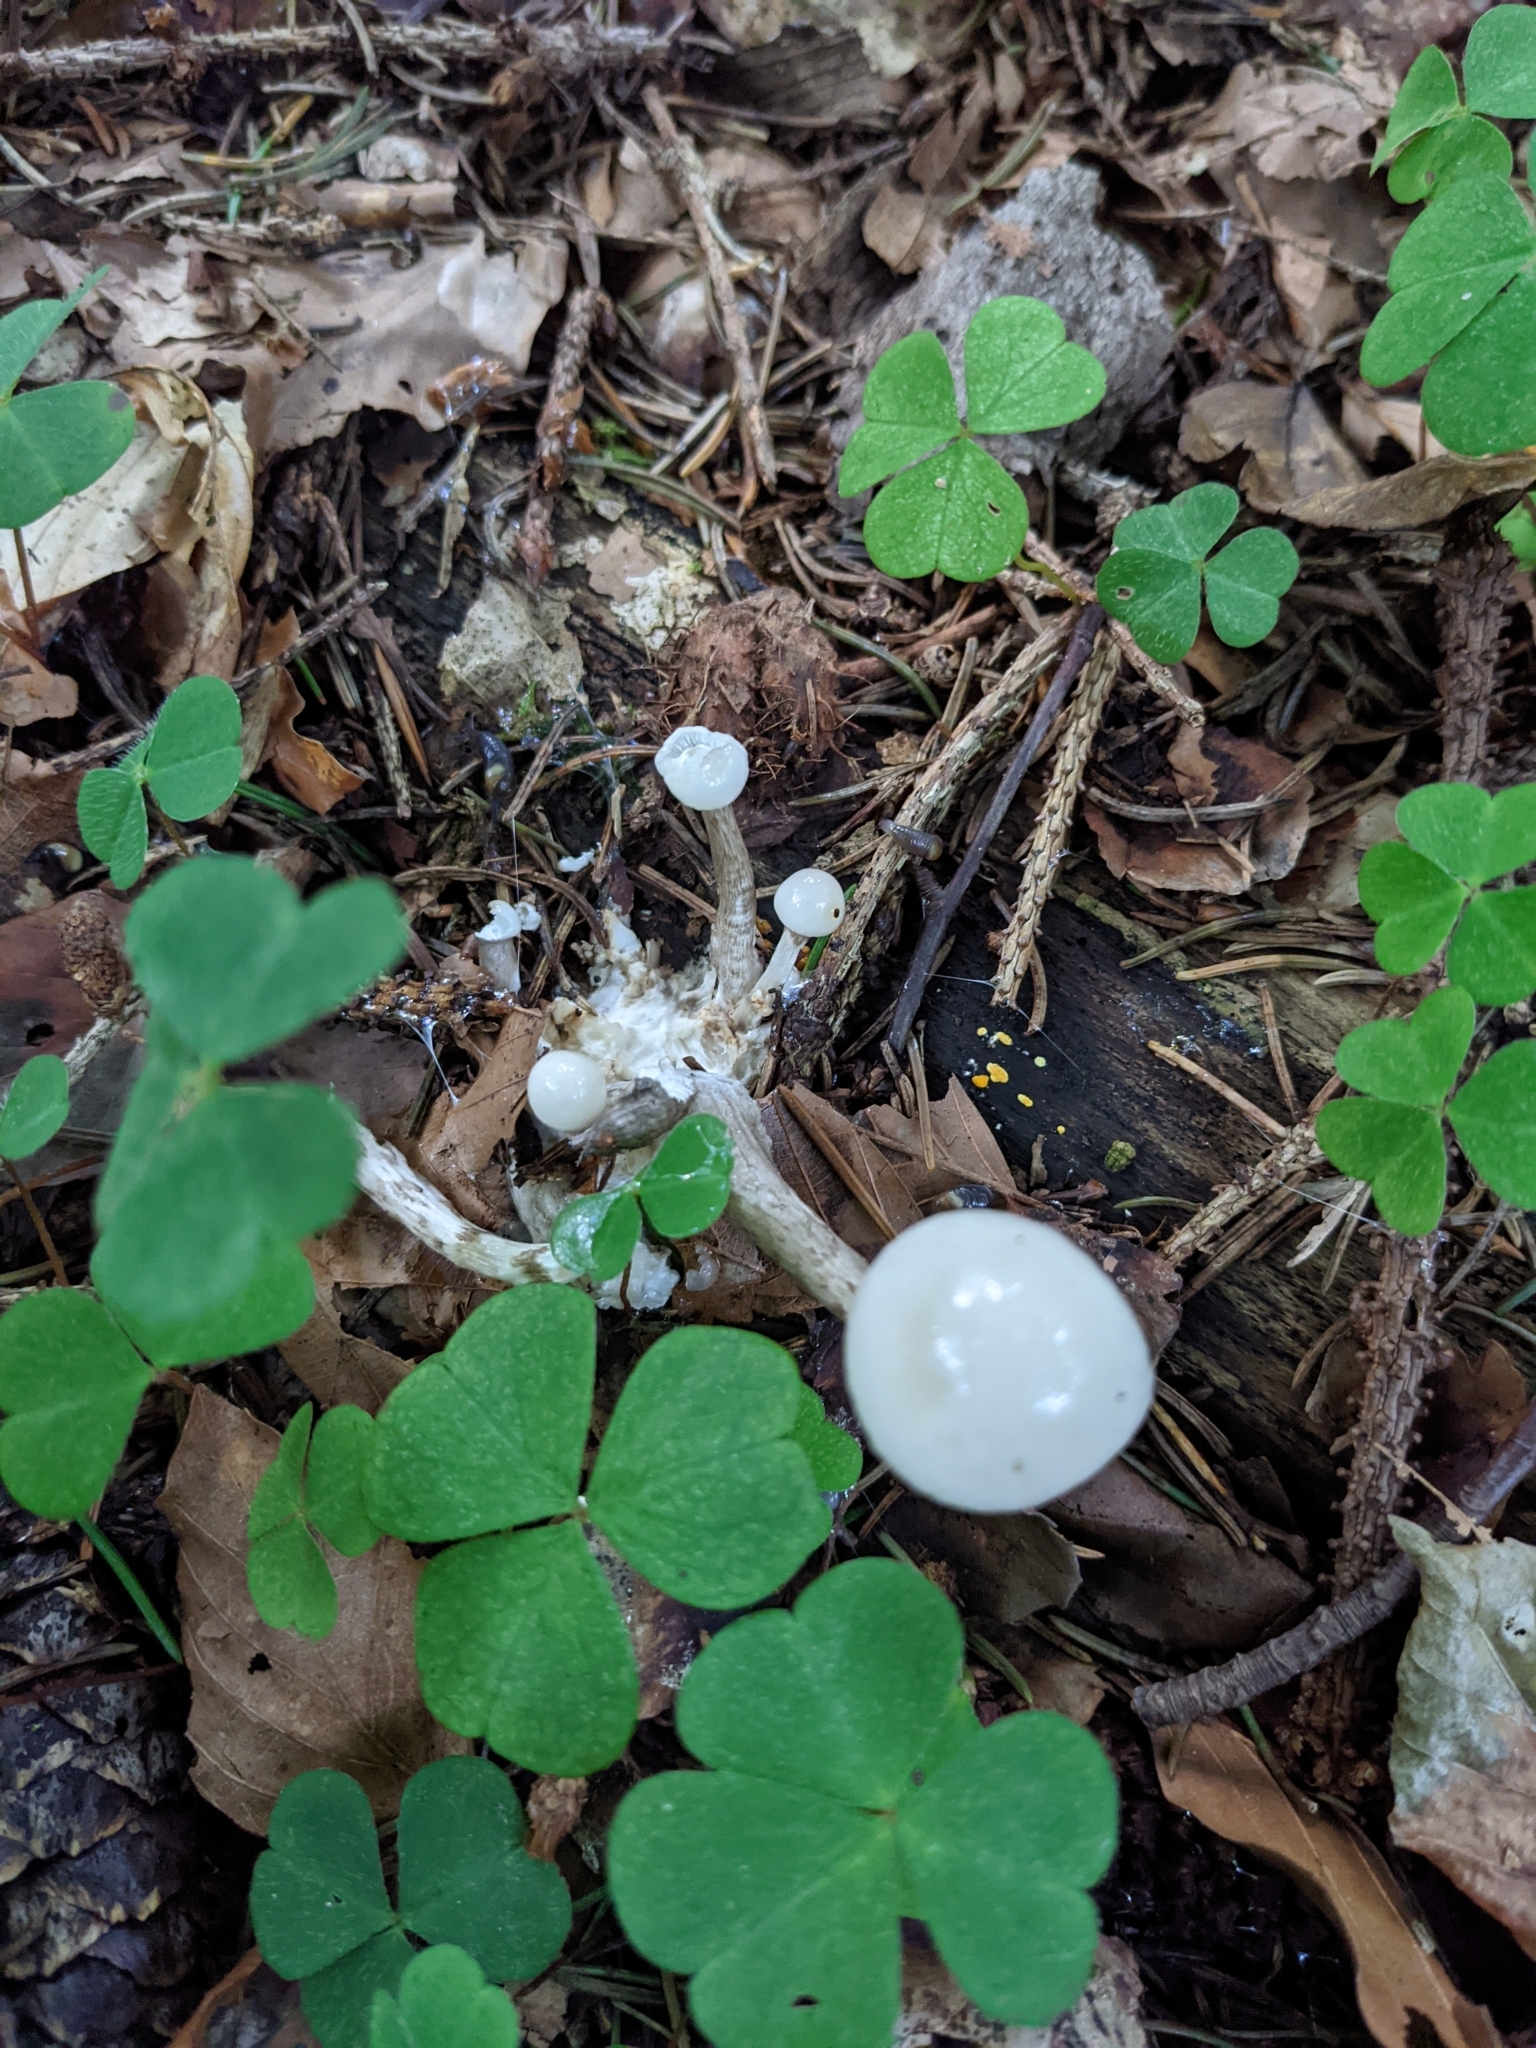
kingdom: Fungi
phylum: Basidiomycota
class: Agaricomycetes
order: Agaricales
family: Physalacriaceae
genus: Mucidula
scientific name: Mucidula mucida
